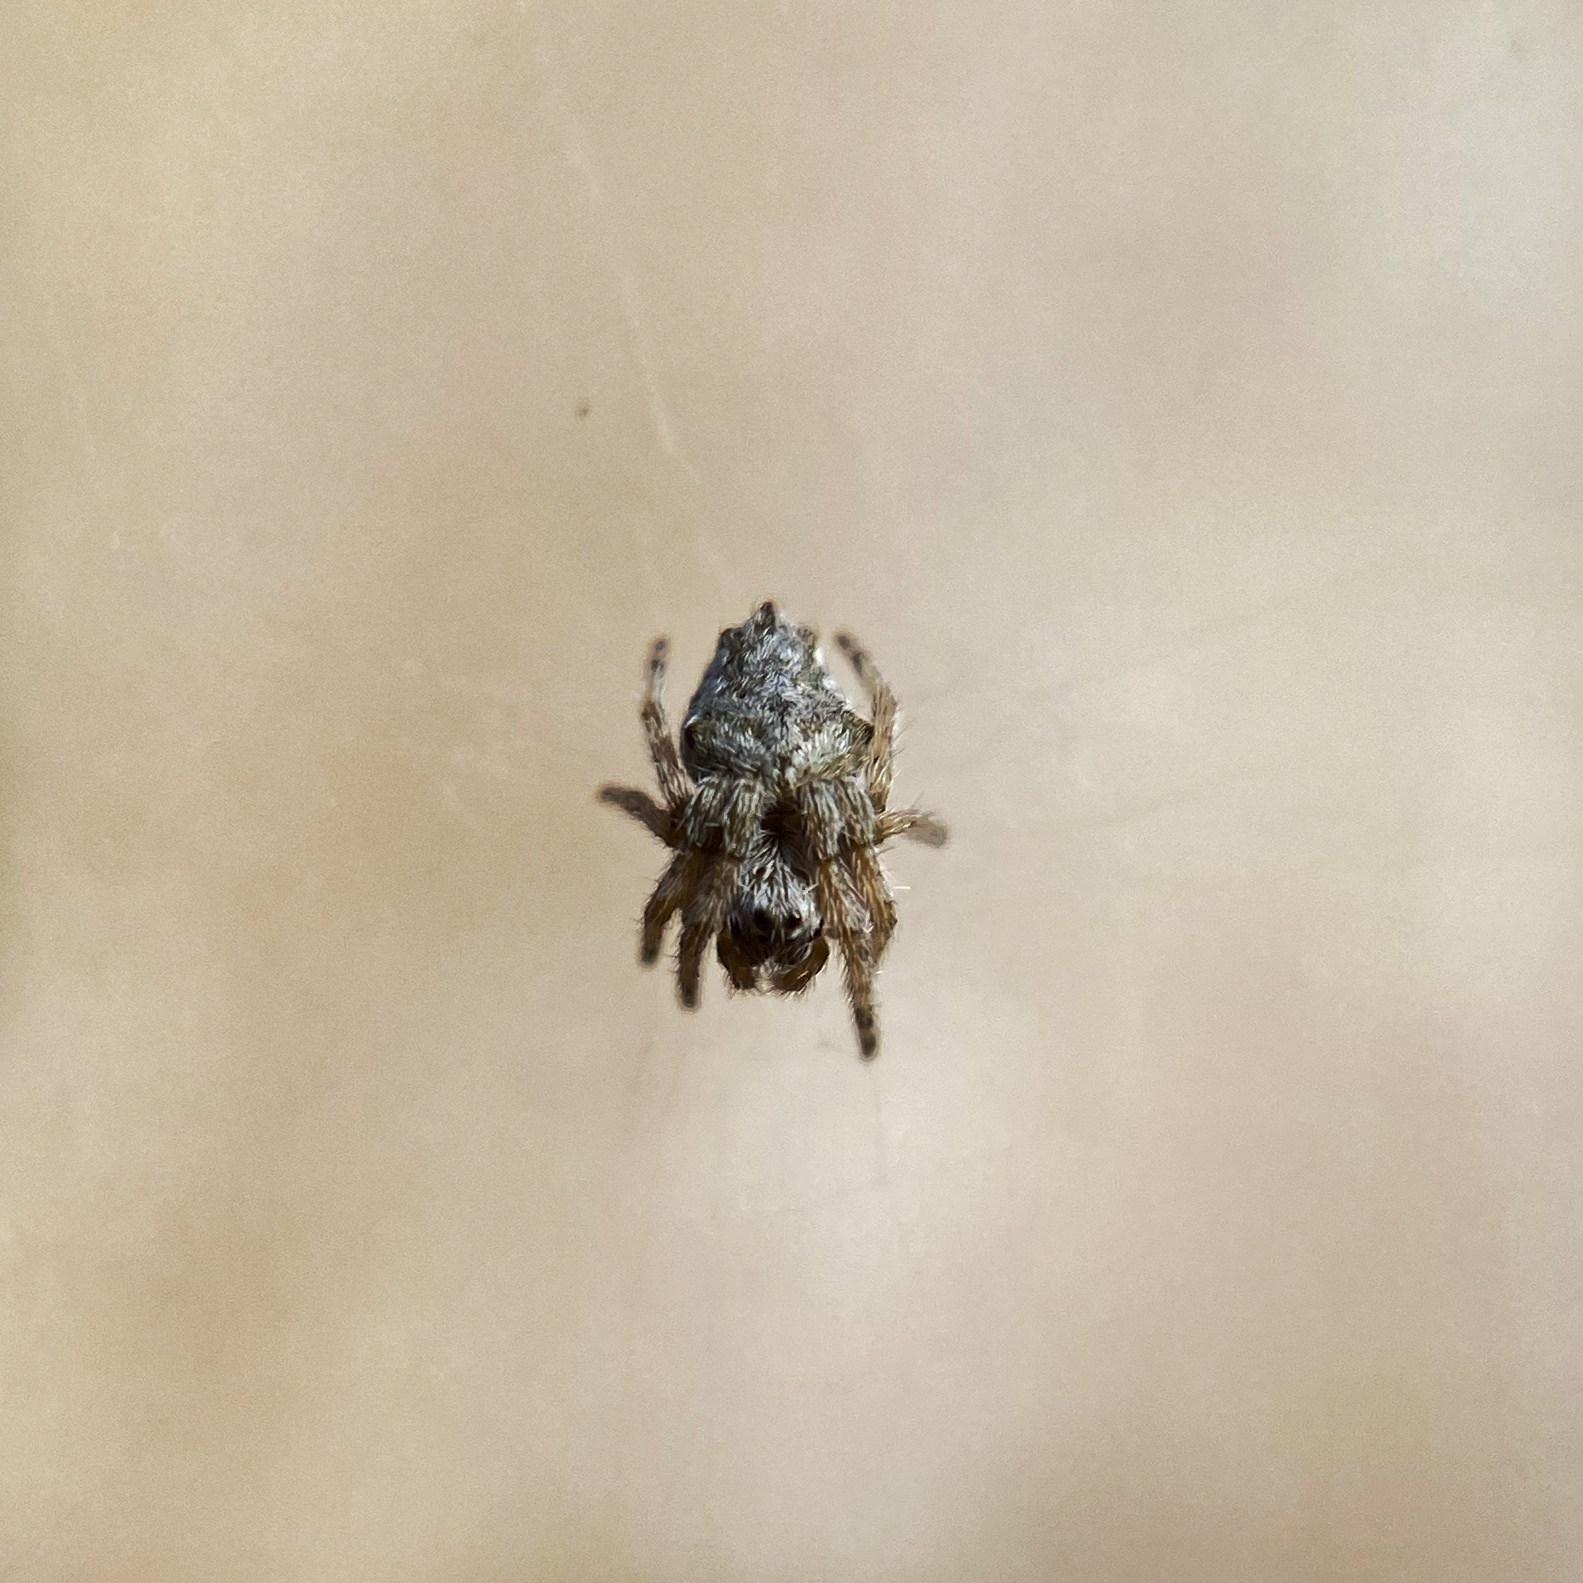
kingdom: Animalia
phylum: Arthropoda
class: Arachnida
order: Araneae
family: Araneidae
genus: Eriophora
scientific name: Eriophora pustulosa
